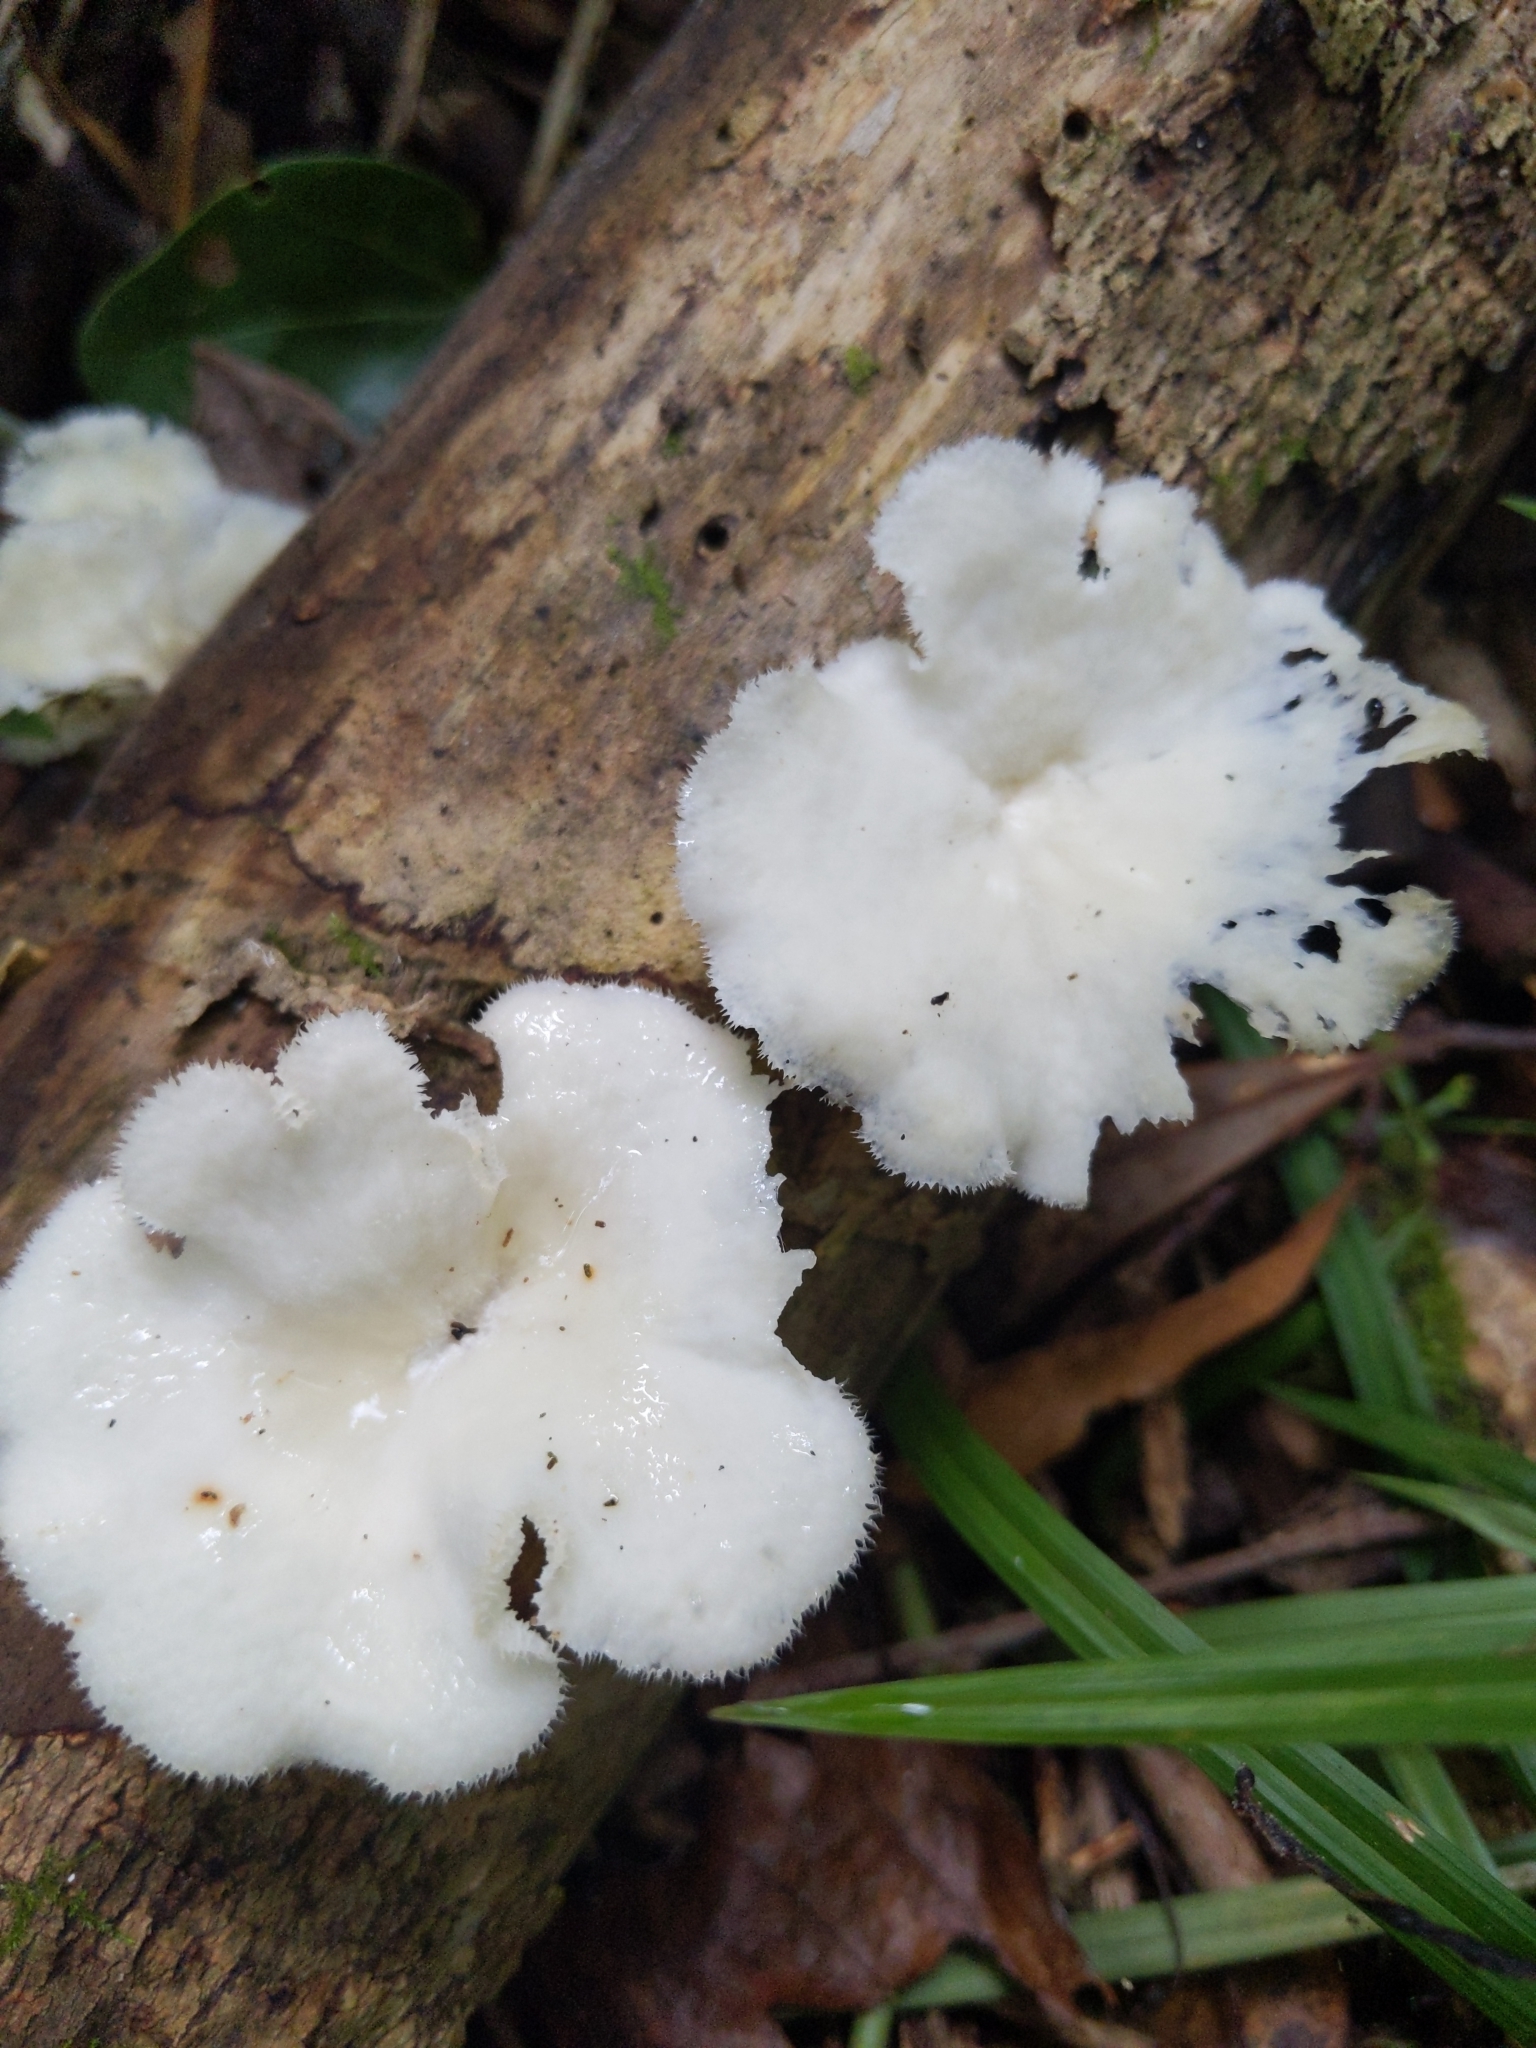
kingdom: Fungi
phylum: Basidiomycota
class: Agaricomycetes
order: Polyporales
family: Polyporaceae
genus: Favolus
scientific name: Favolus tenuiculus
